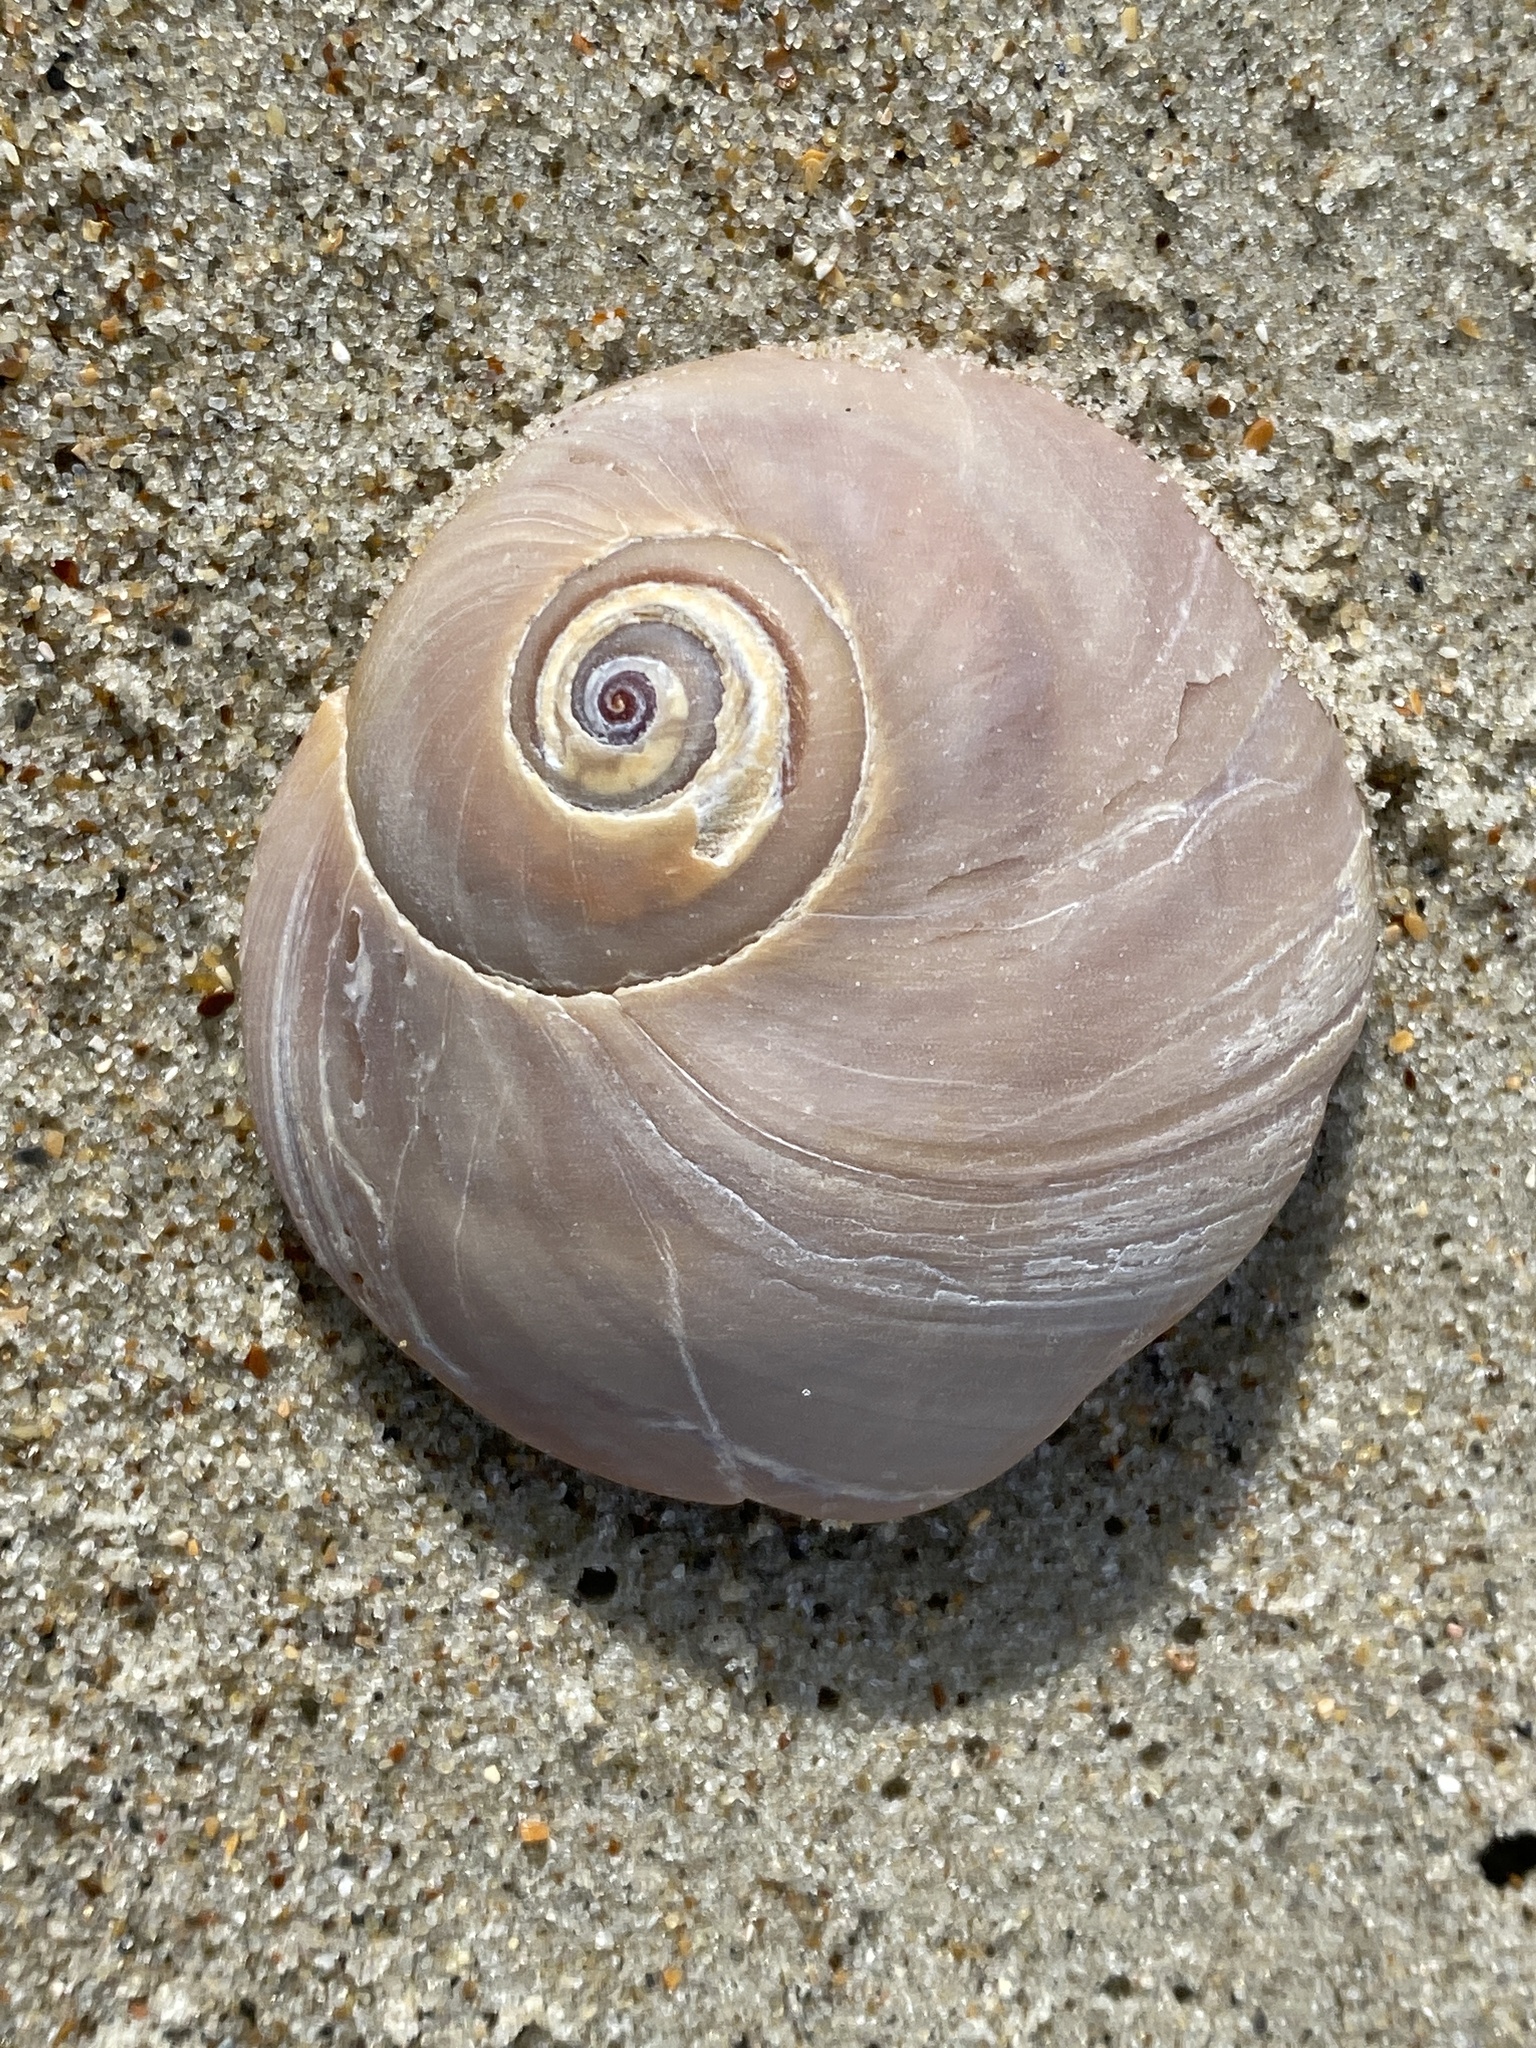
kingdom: Animalia
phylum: Mollusca
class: Gastropoda
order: Littorinimorpha
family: Naticidae
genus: Neverita
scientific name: Neverita duplicata
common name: Lobed moonsnail
